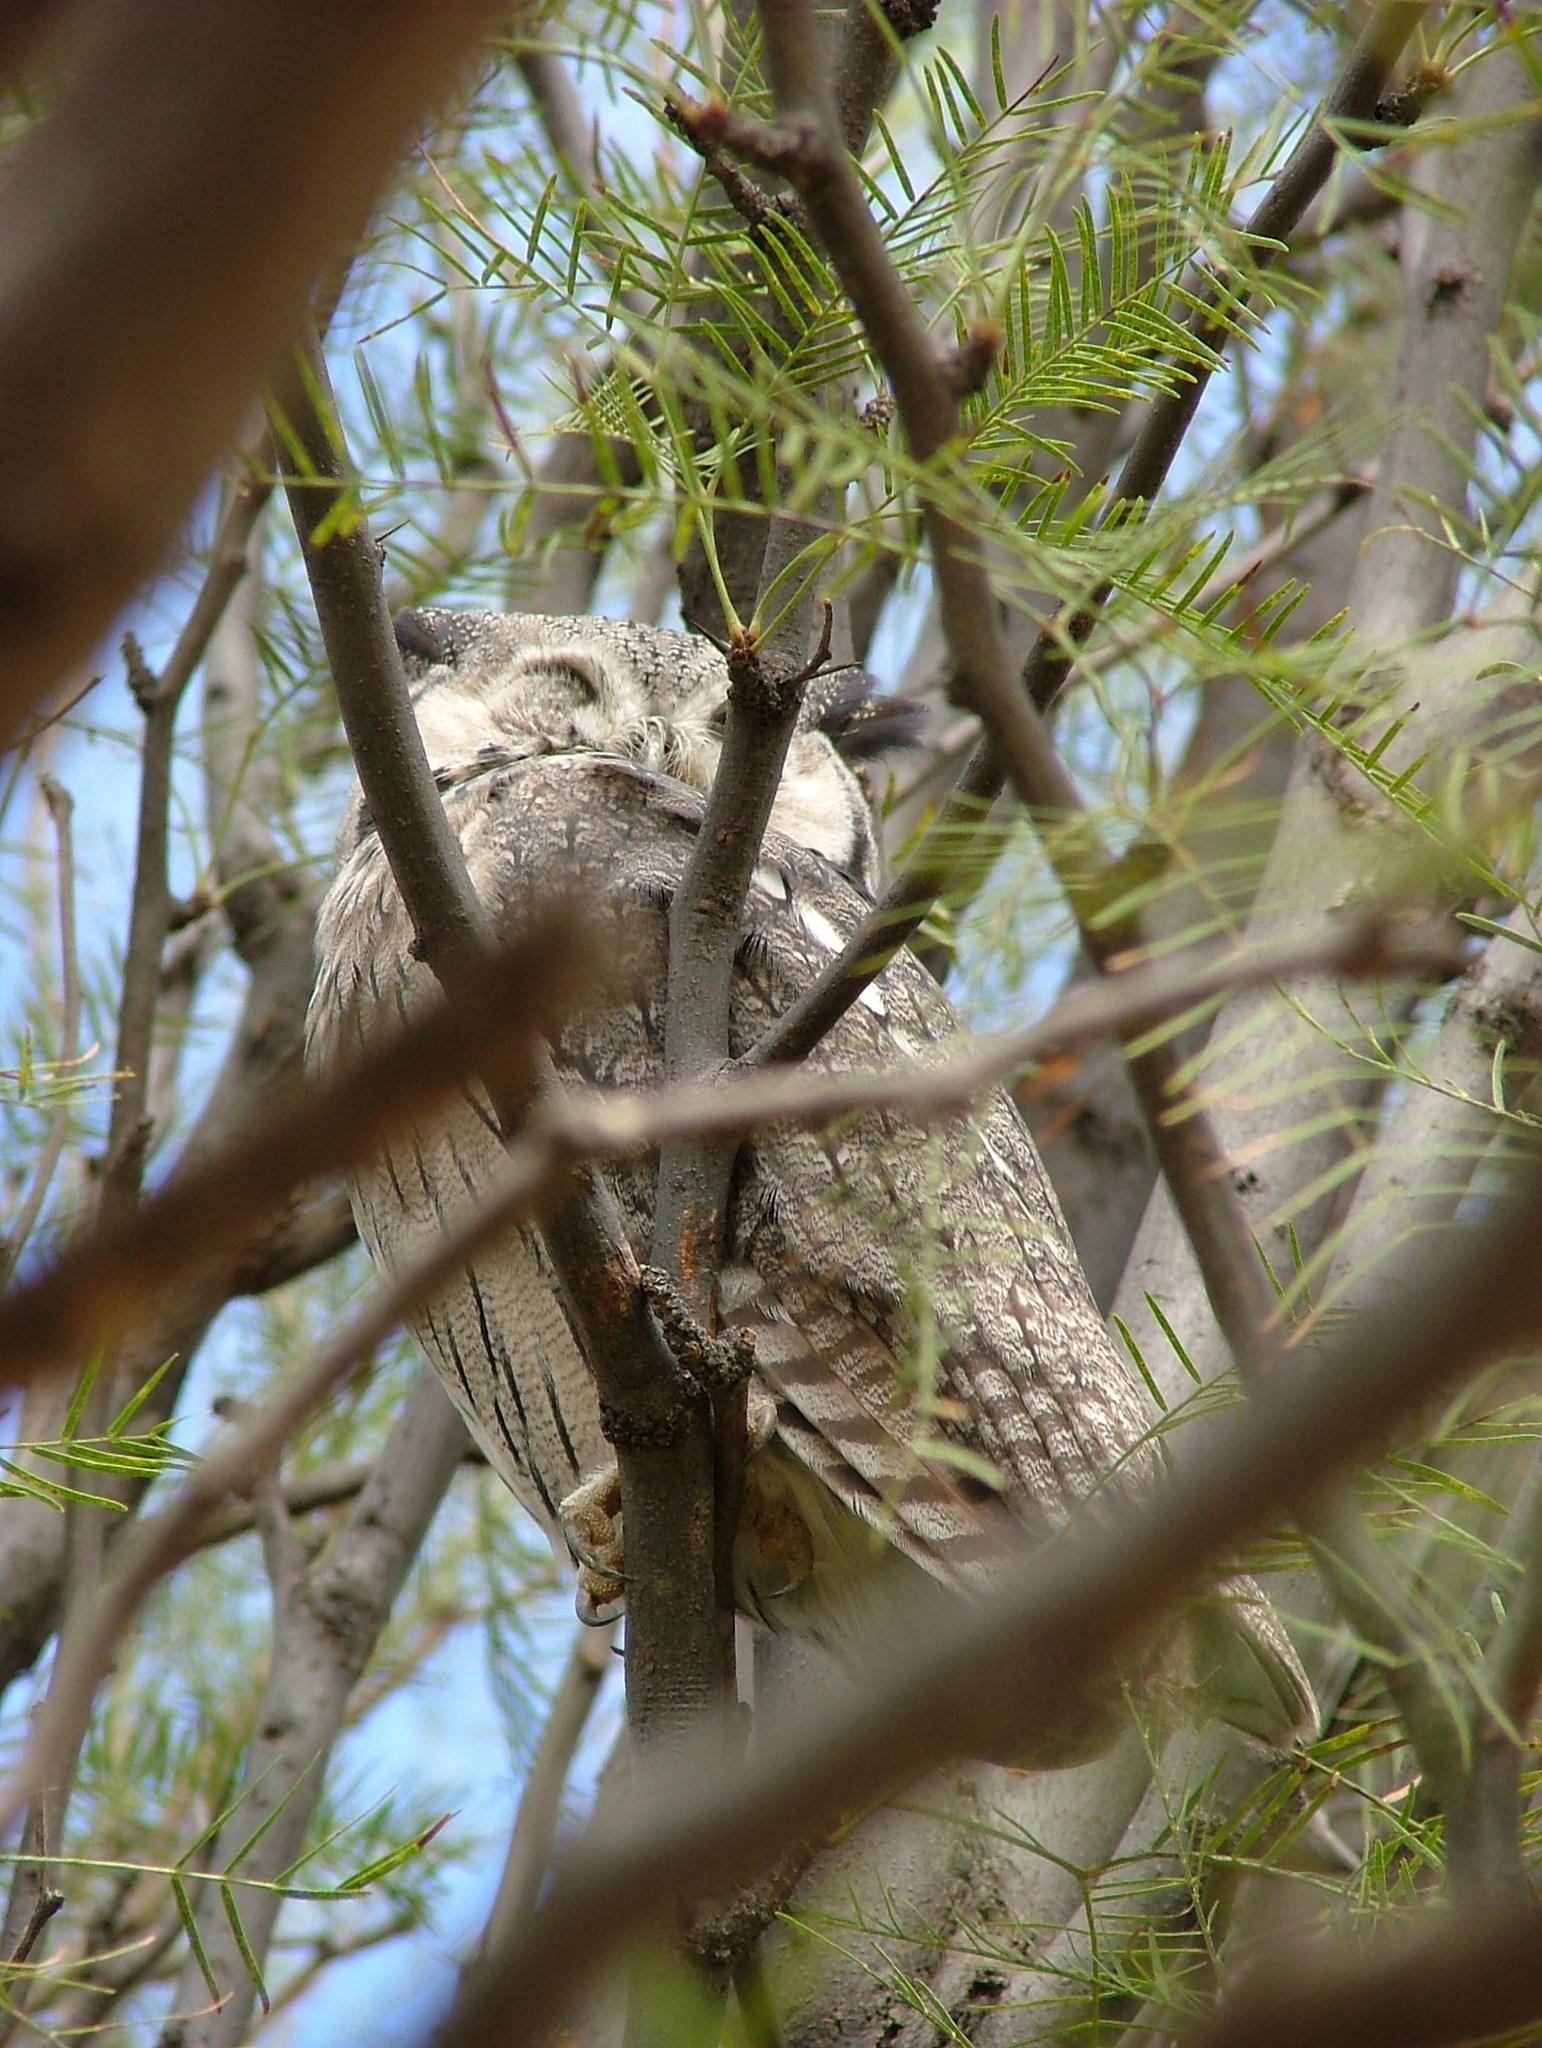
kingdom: Animalia
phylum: Chordata
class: Aves
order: Strigiformes
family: Strigidae
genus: Ptilopsis
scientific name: Ptilopsis granti
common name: Southern white-faced owl
